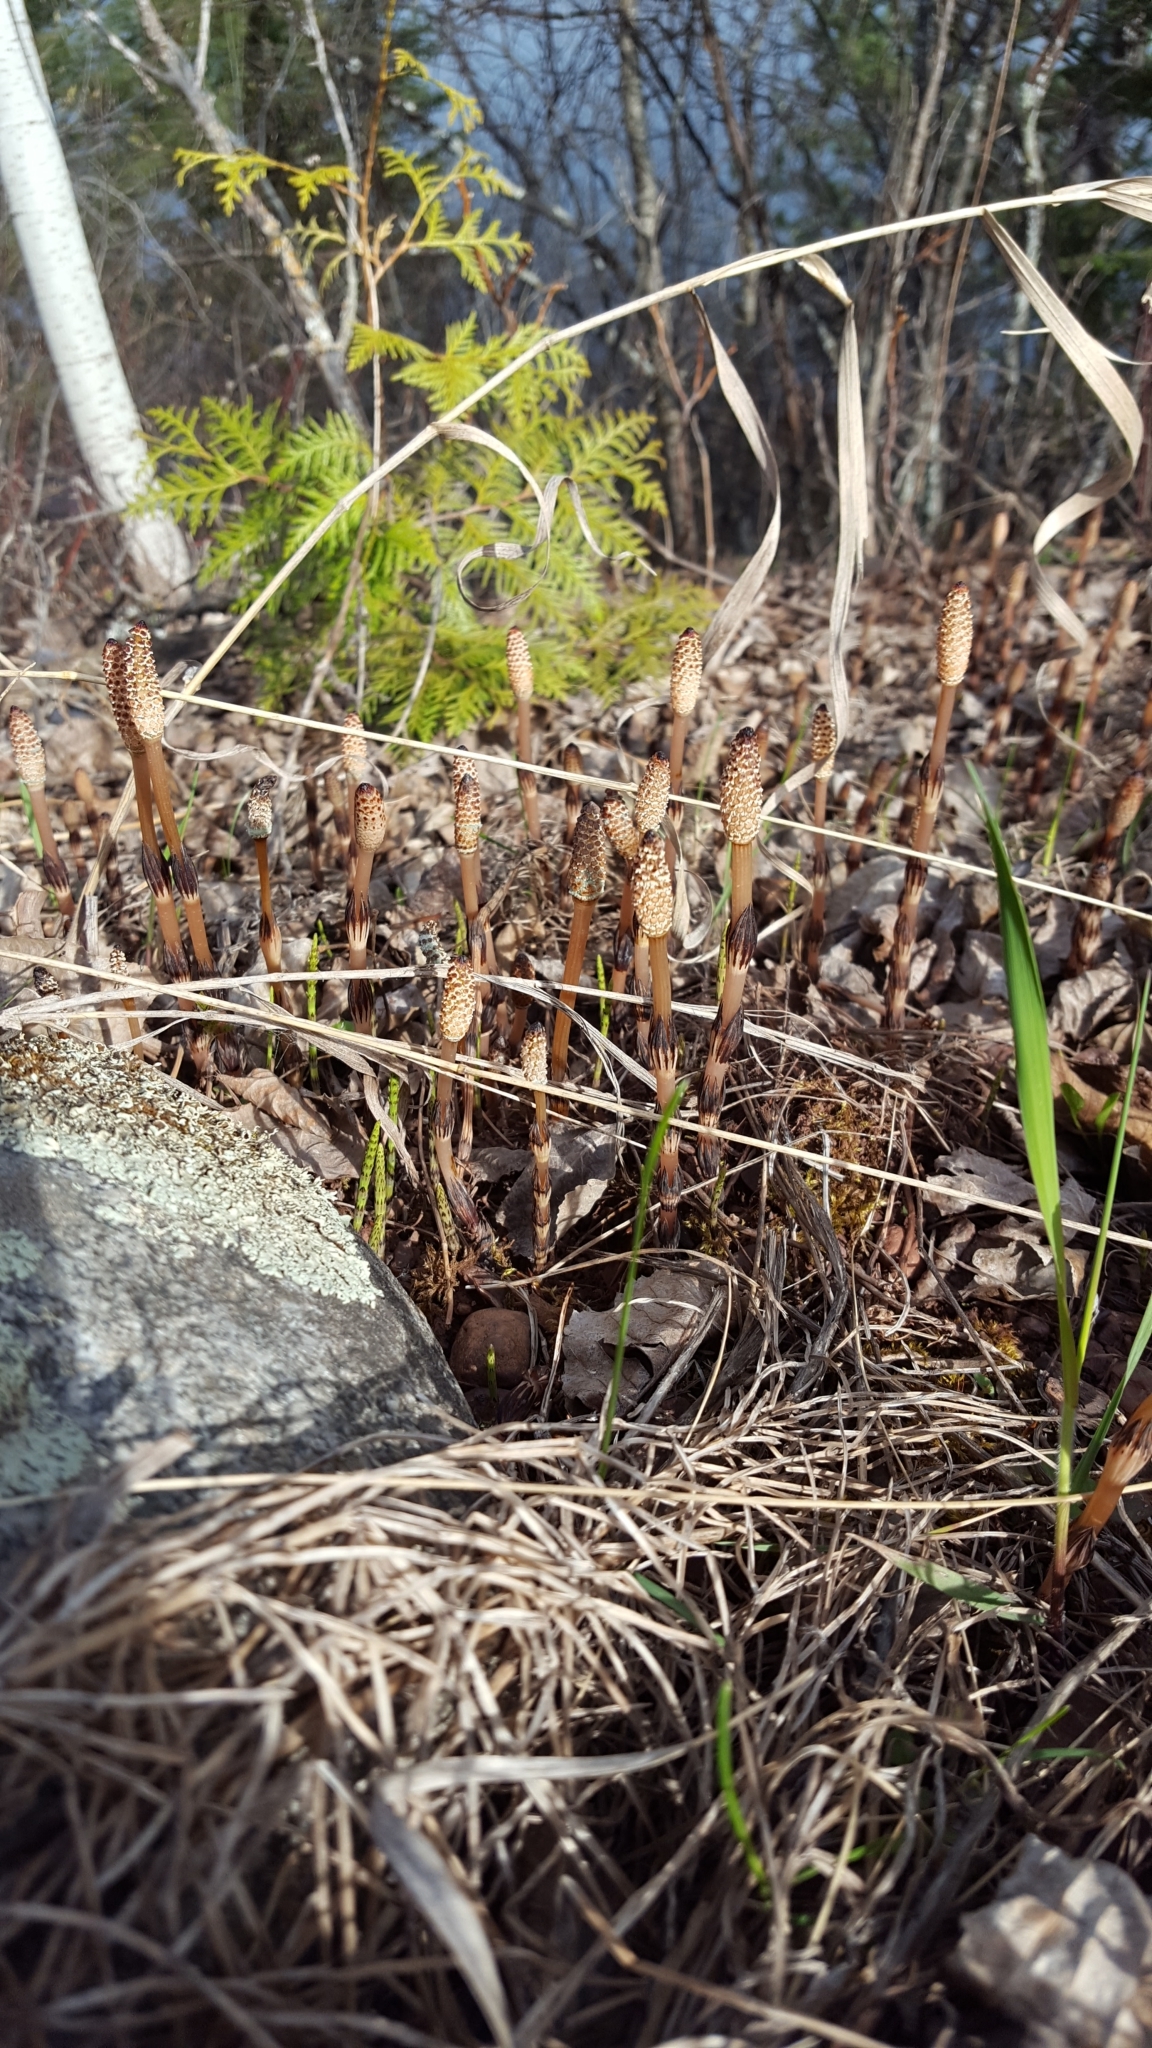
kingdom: Plantae
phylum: Tracheophyta
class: Polypodiopsida
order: Equisetales
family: Equisetaceae
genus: Equisetum
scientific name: Equisetum arvense
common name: Field horsetail
